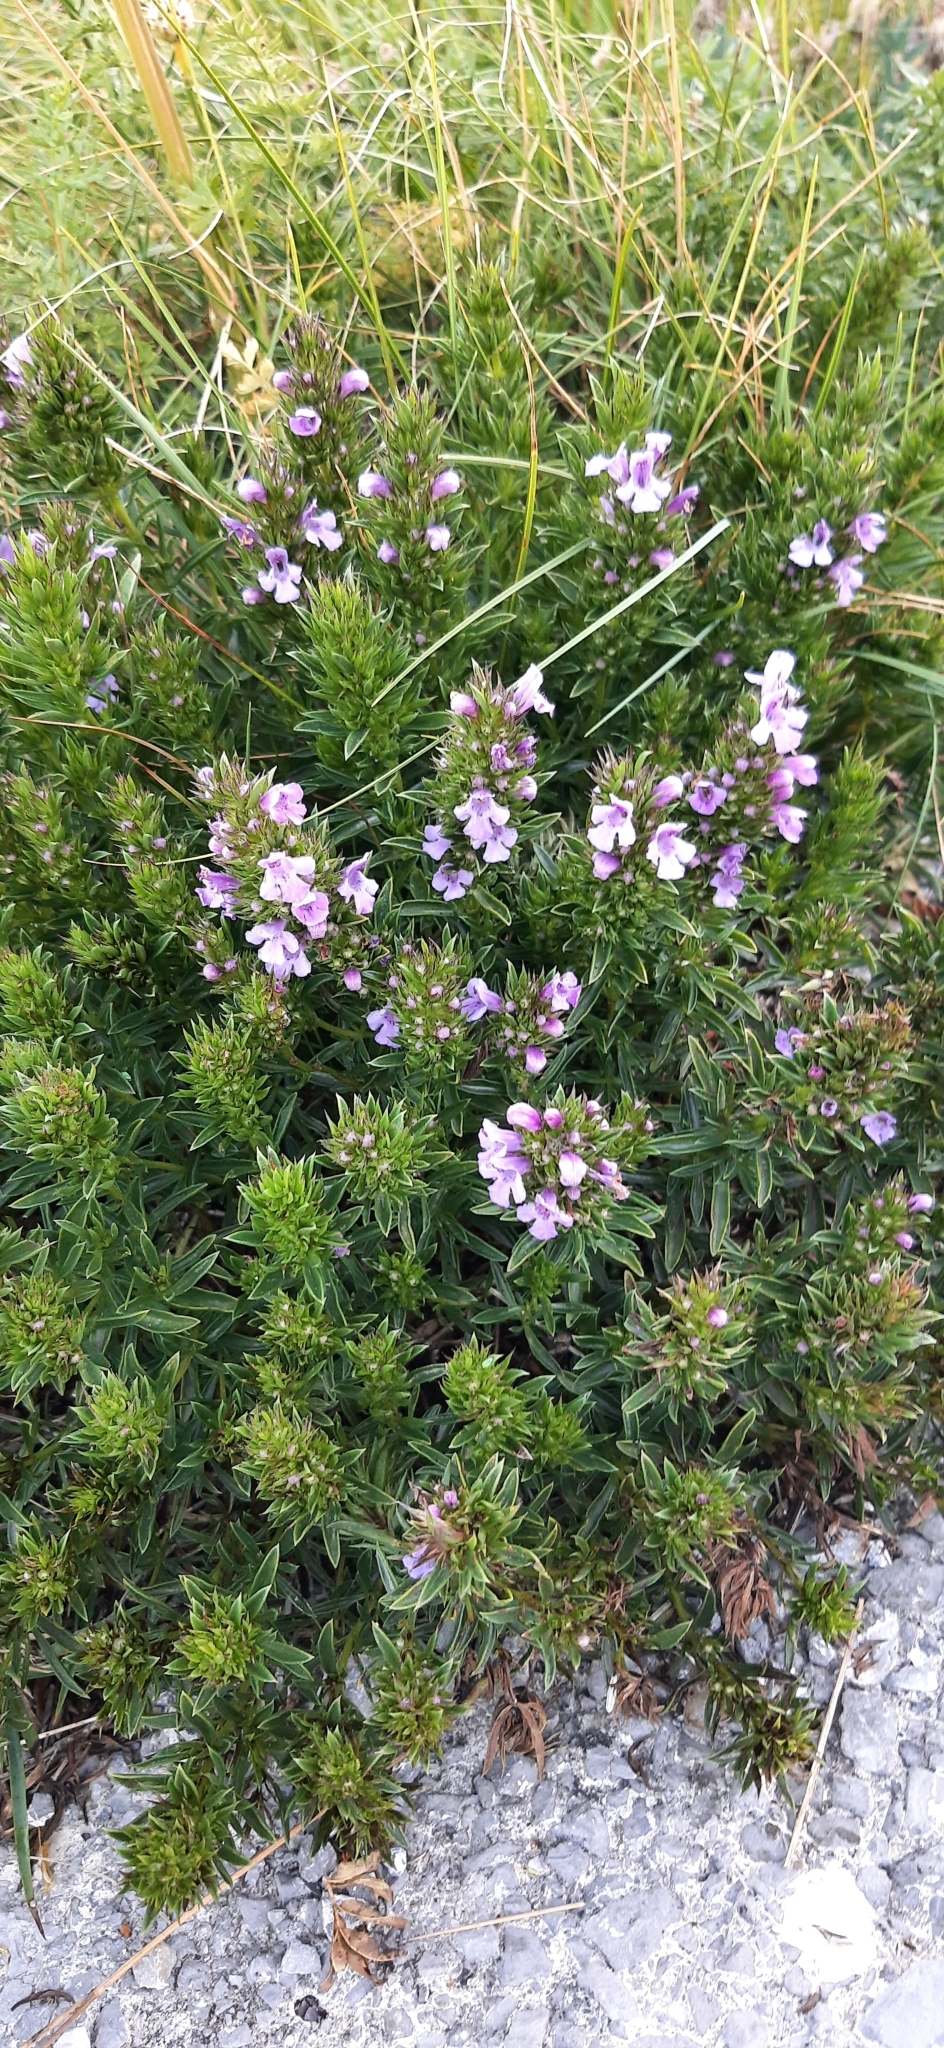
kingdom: Plantae
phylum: Tracheophyta
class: Magnoliopsida
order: Lamiales
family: Lamiaceae
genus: Satureja
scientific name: Satureja subspicata
